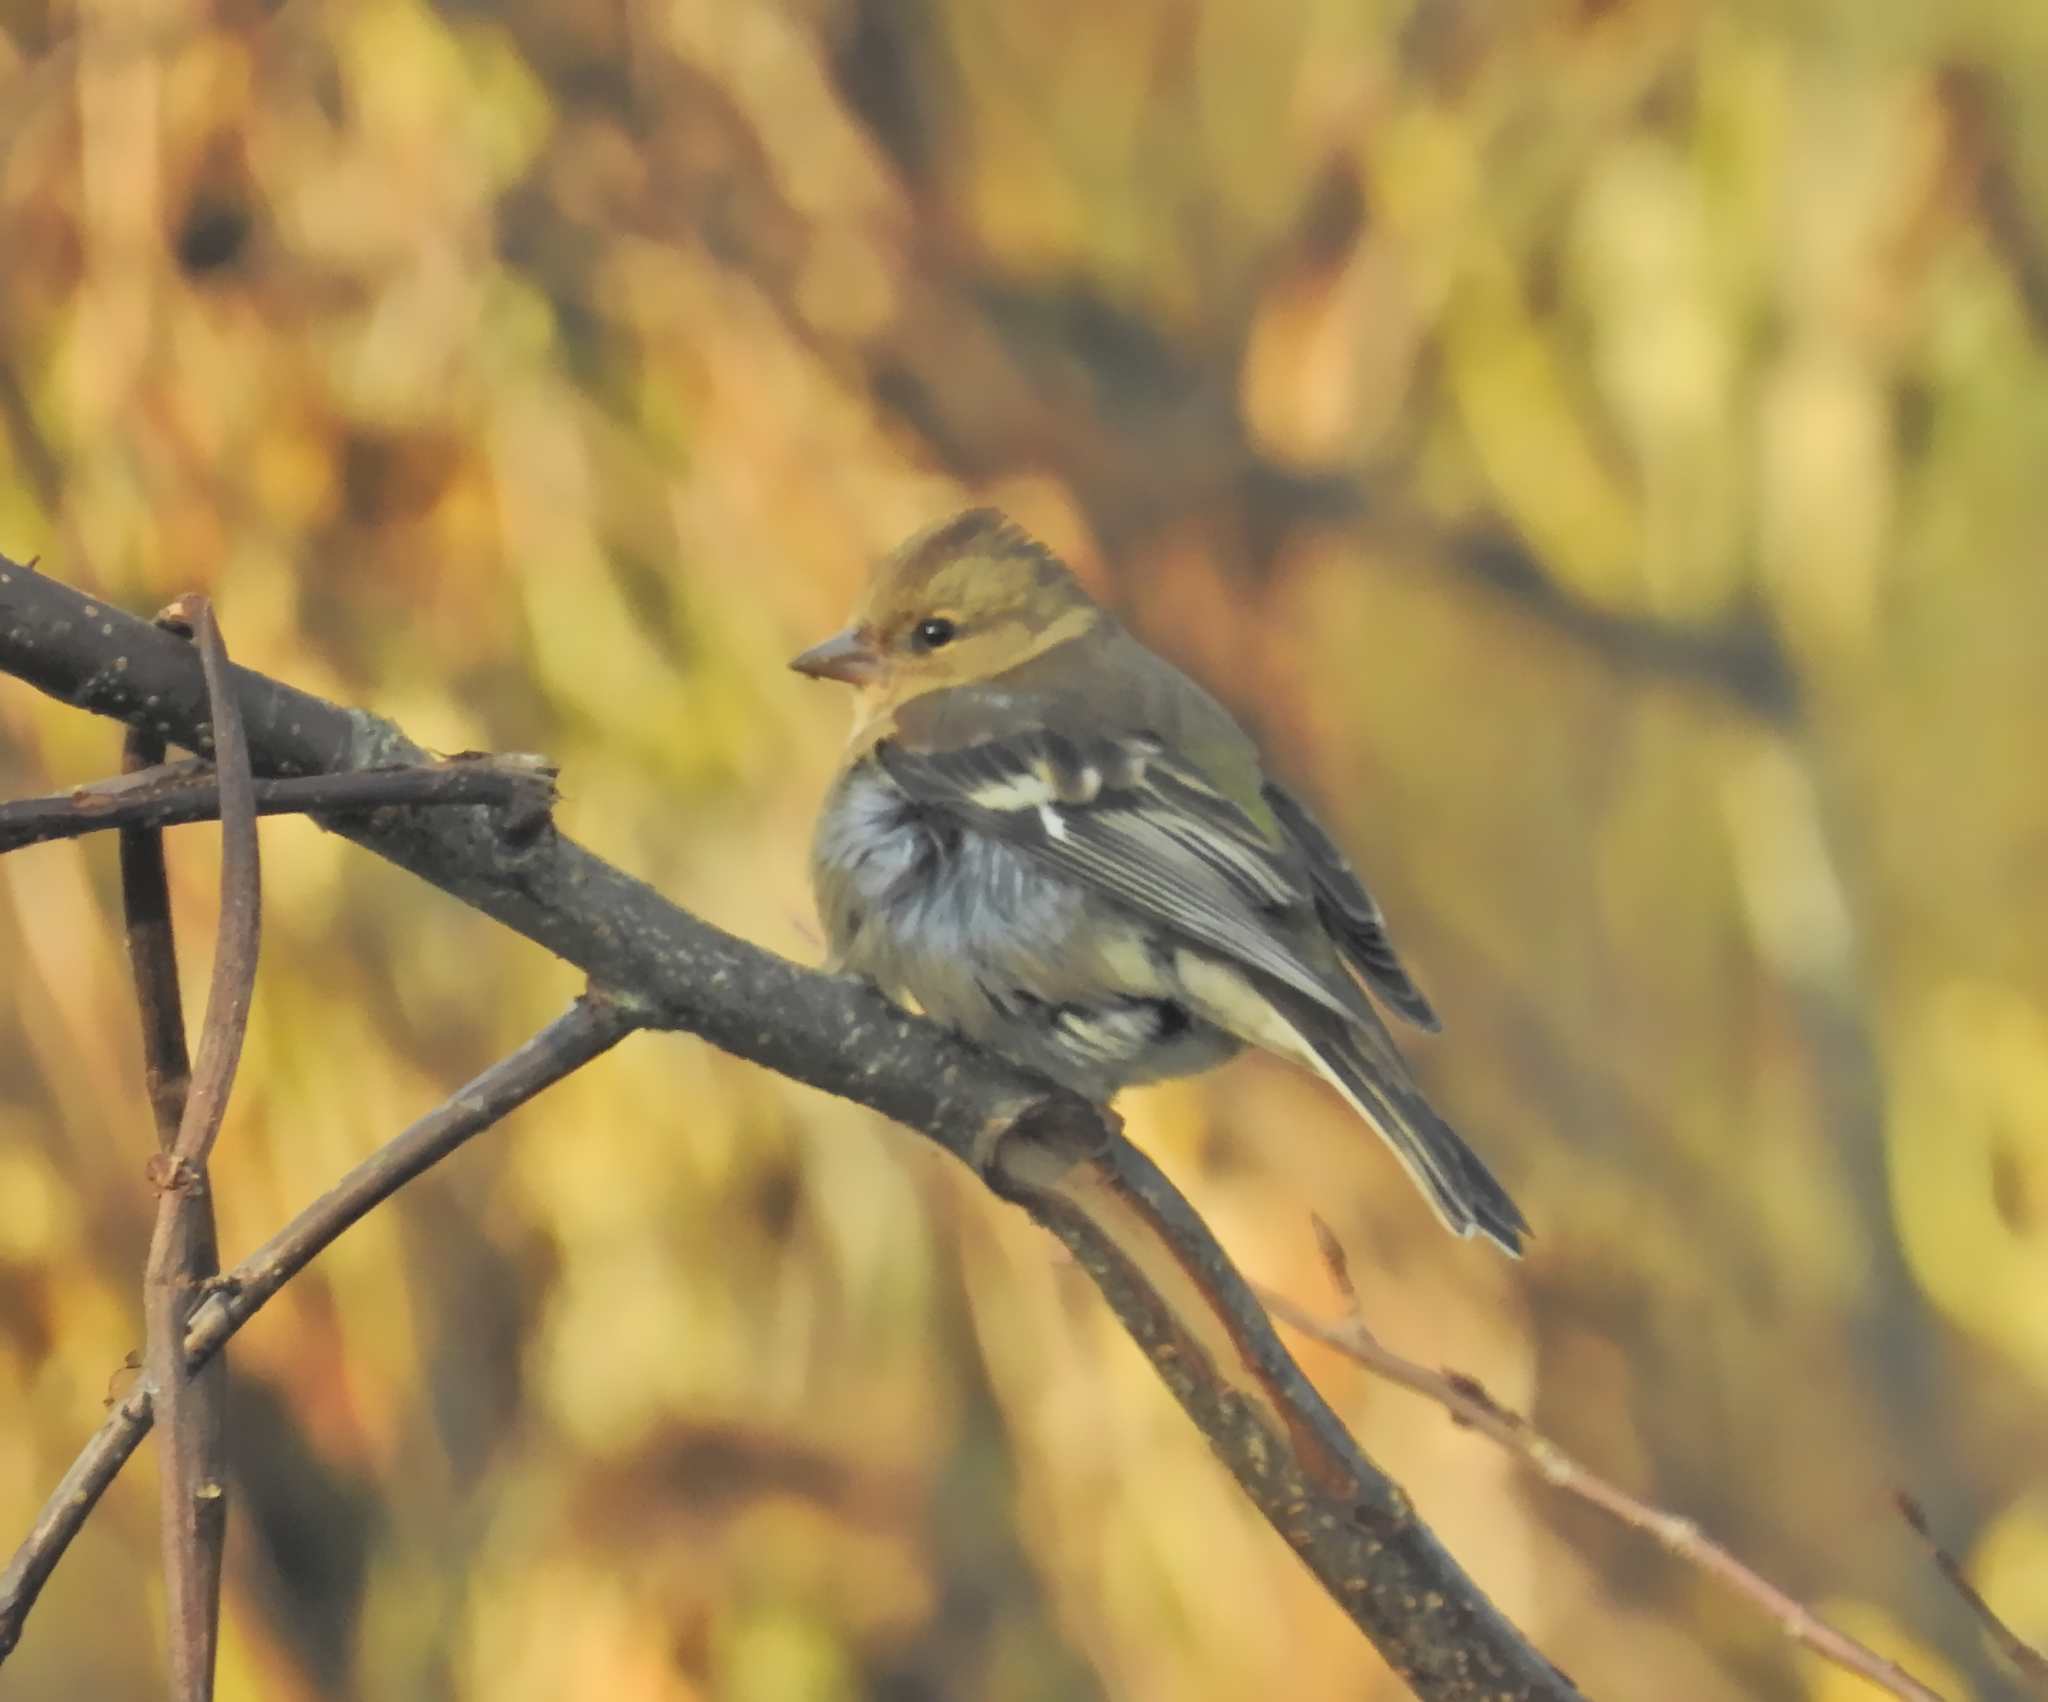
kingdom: Animalia
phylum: Chordata
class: Aves
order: Passeriformes
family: Fringillidae
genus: Fringilla
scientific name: Fringilla coelebs
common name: Common chaffinch
